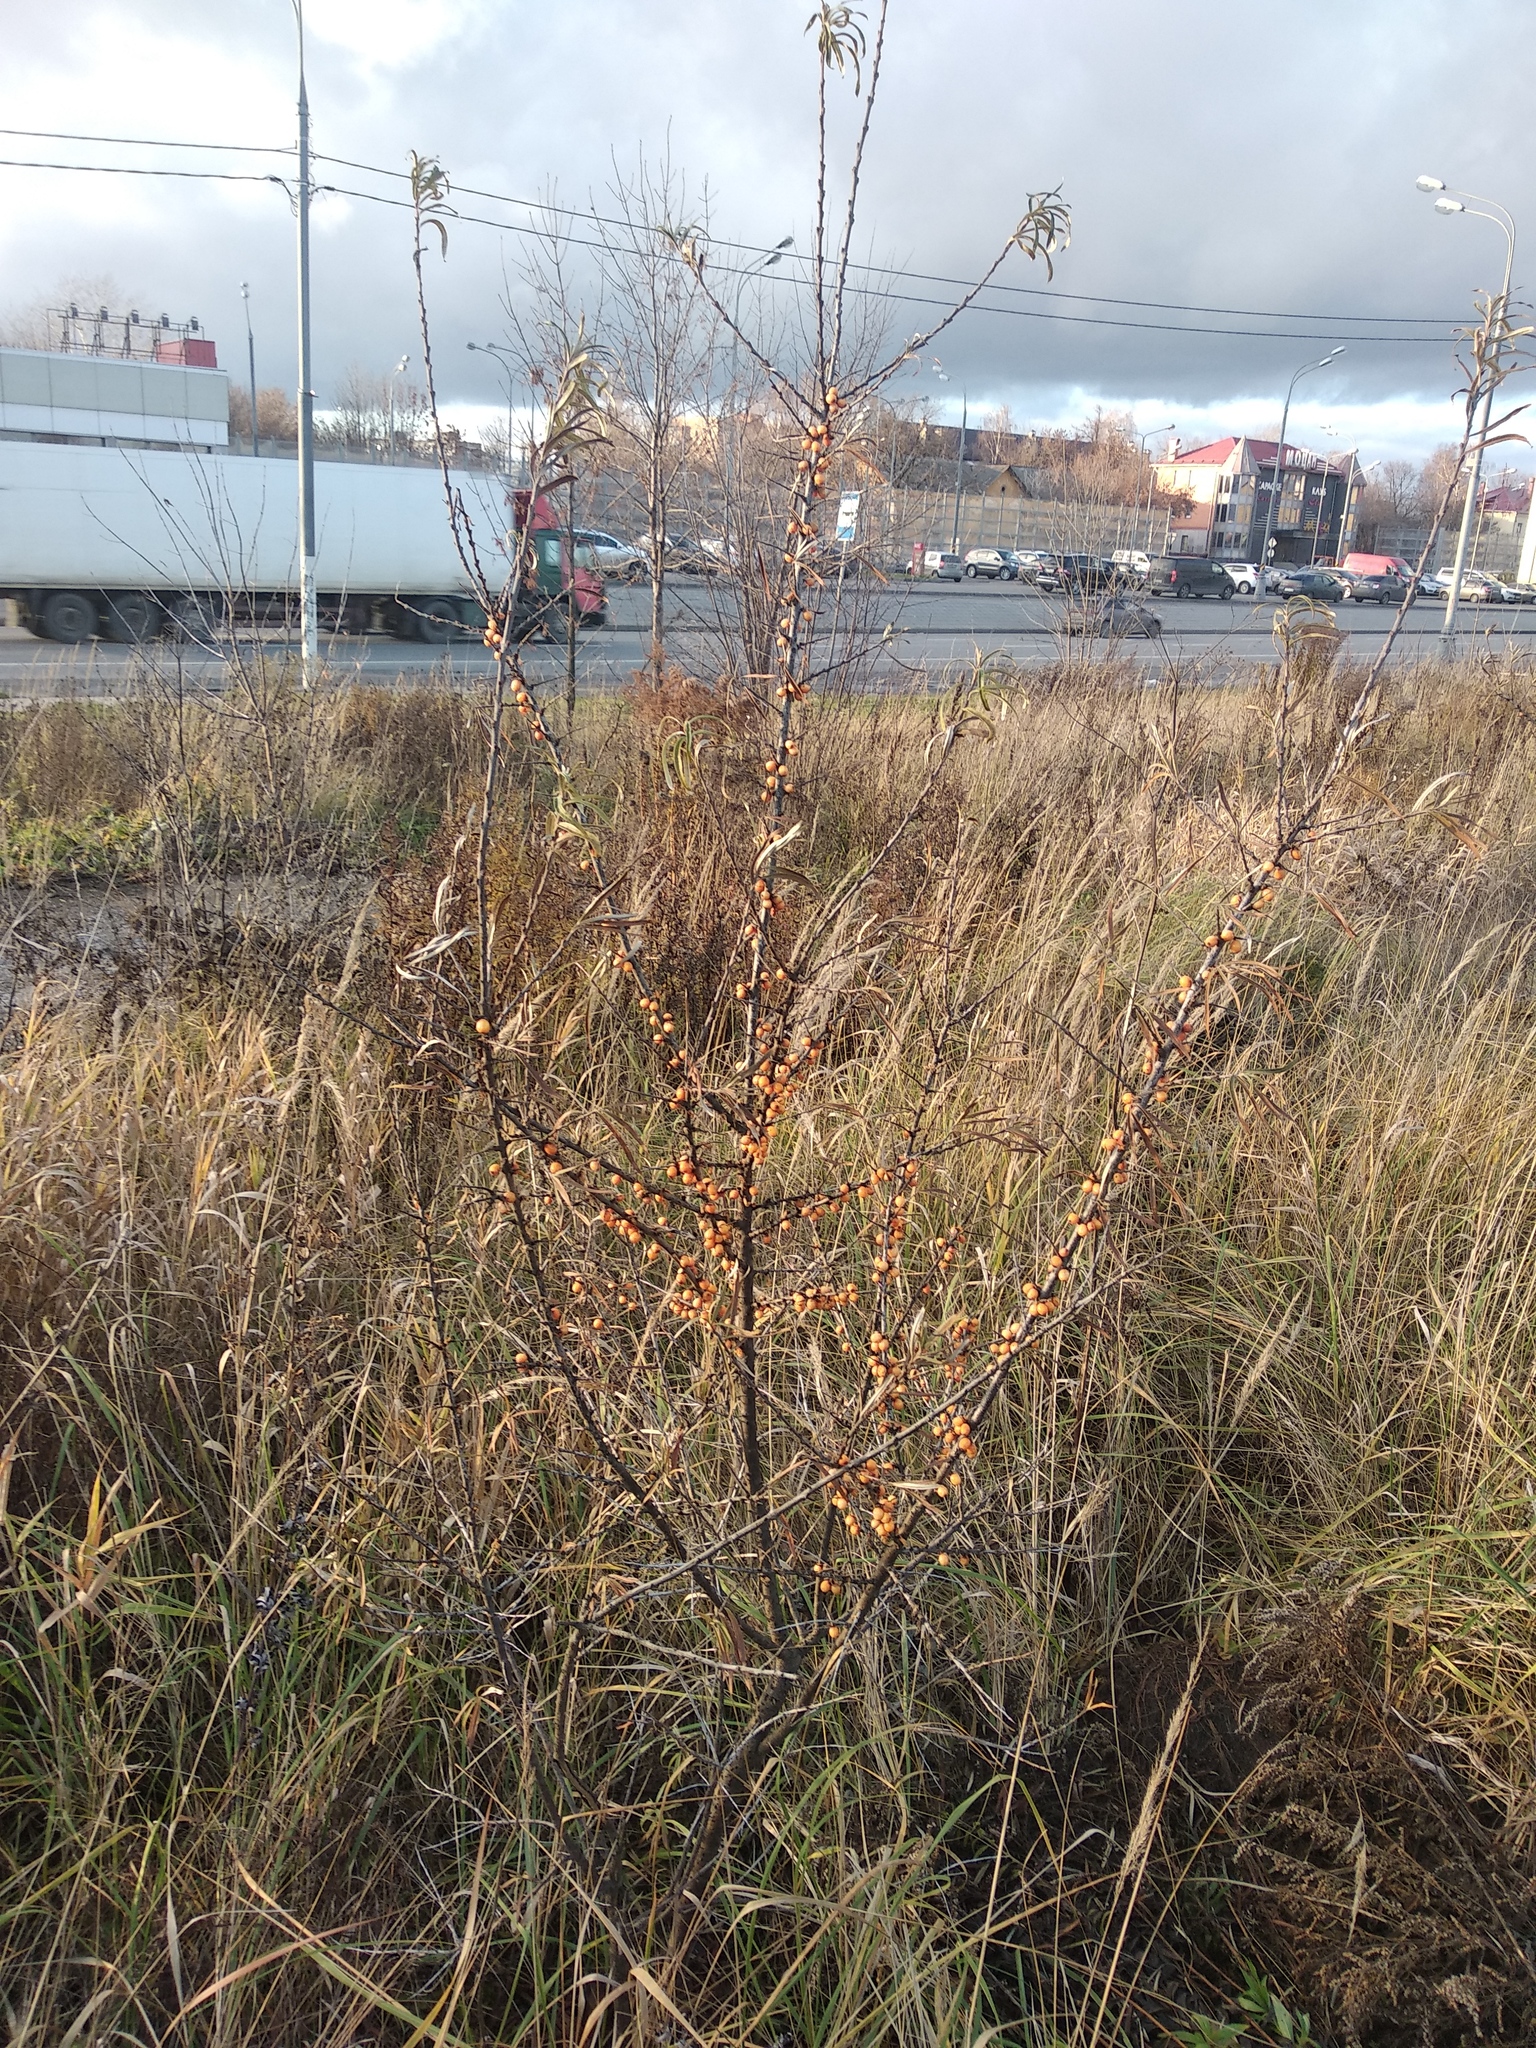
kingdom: Plantae
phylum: Tracheophyta
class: Magnoliopsida
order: Rosales
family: Elaeagnaceae
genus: Hippophae
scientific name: Hippophae rhamnoides
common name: Sea-buckthorn
